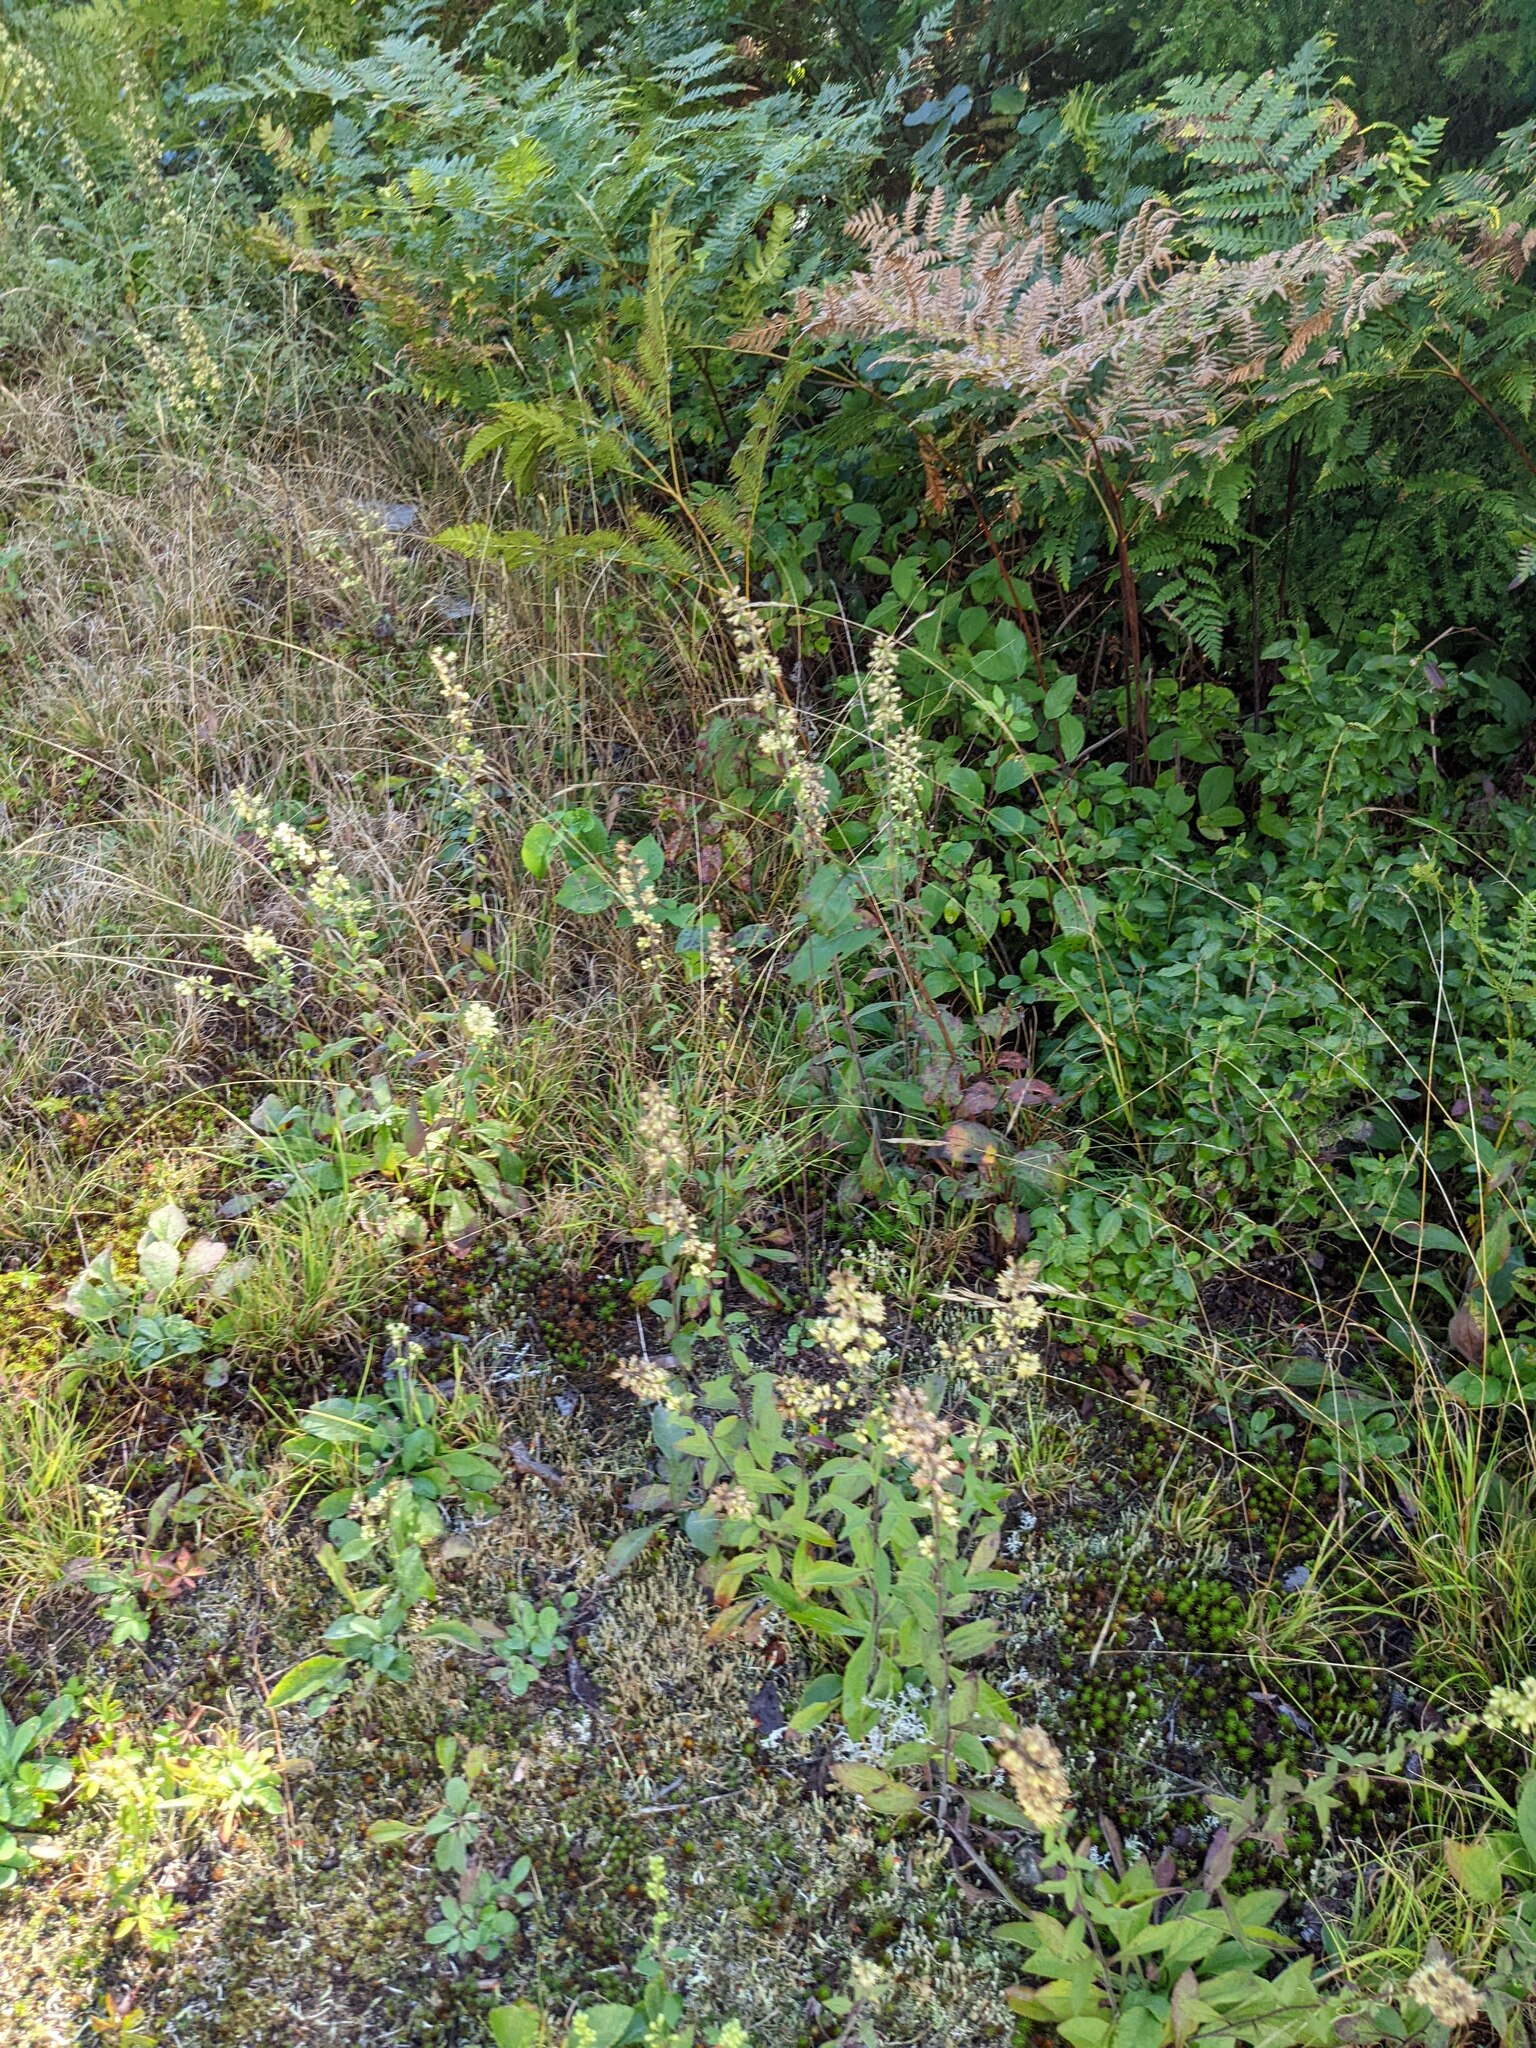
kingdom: Plantae
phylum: Tracheophyta
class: Magnoliopsida
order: Asterales
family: Asteraceae
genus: Solidago
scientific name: Solidago bicolor
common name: Silverrod
